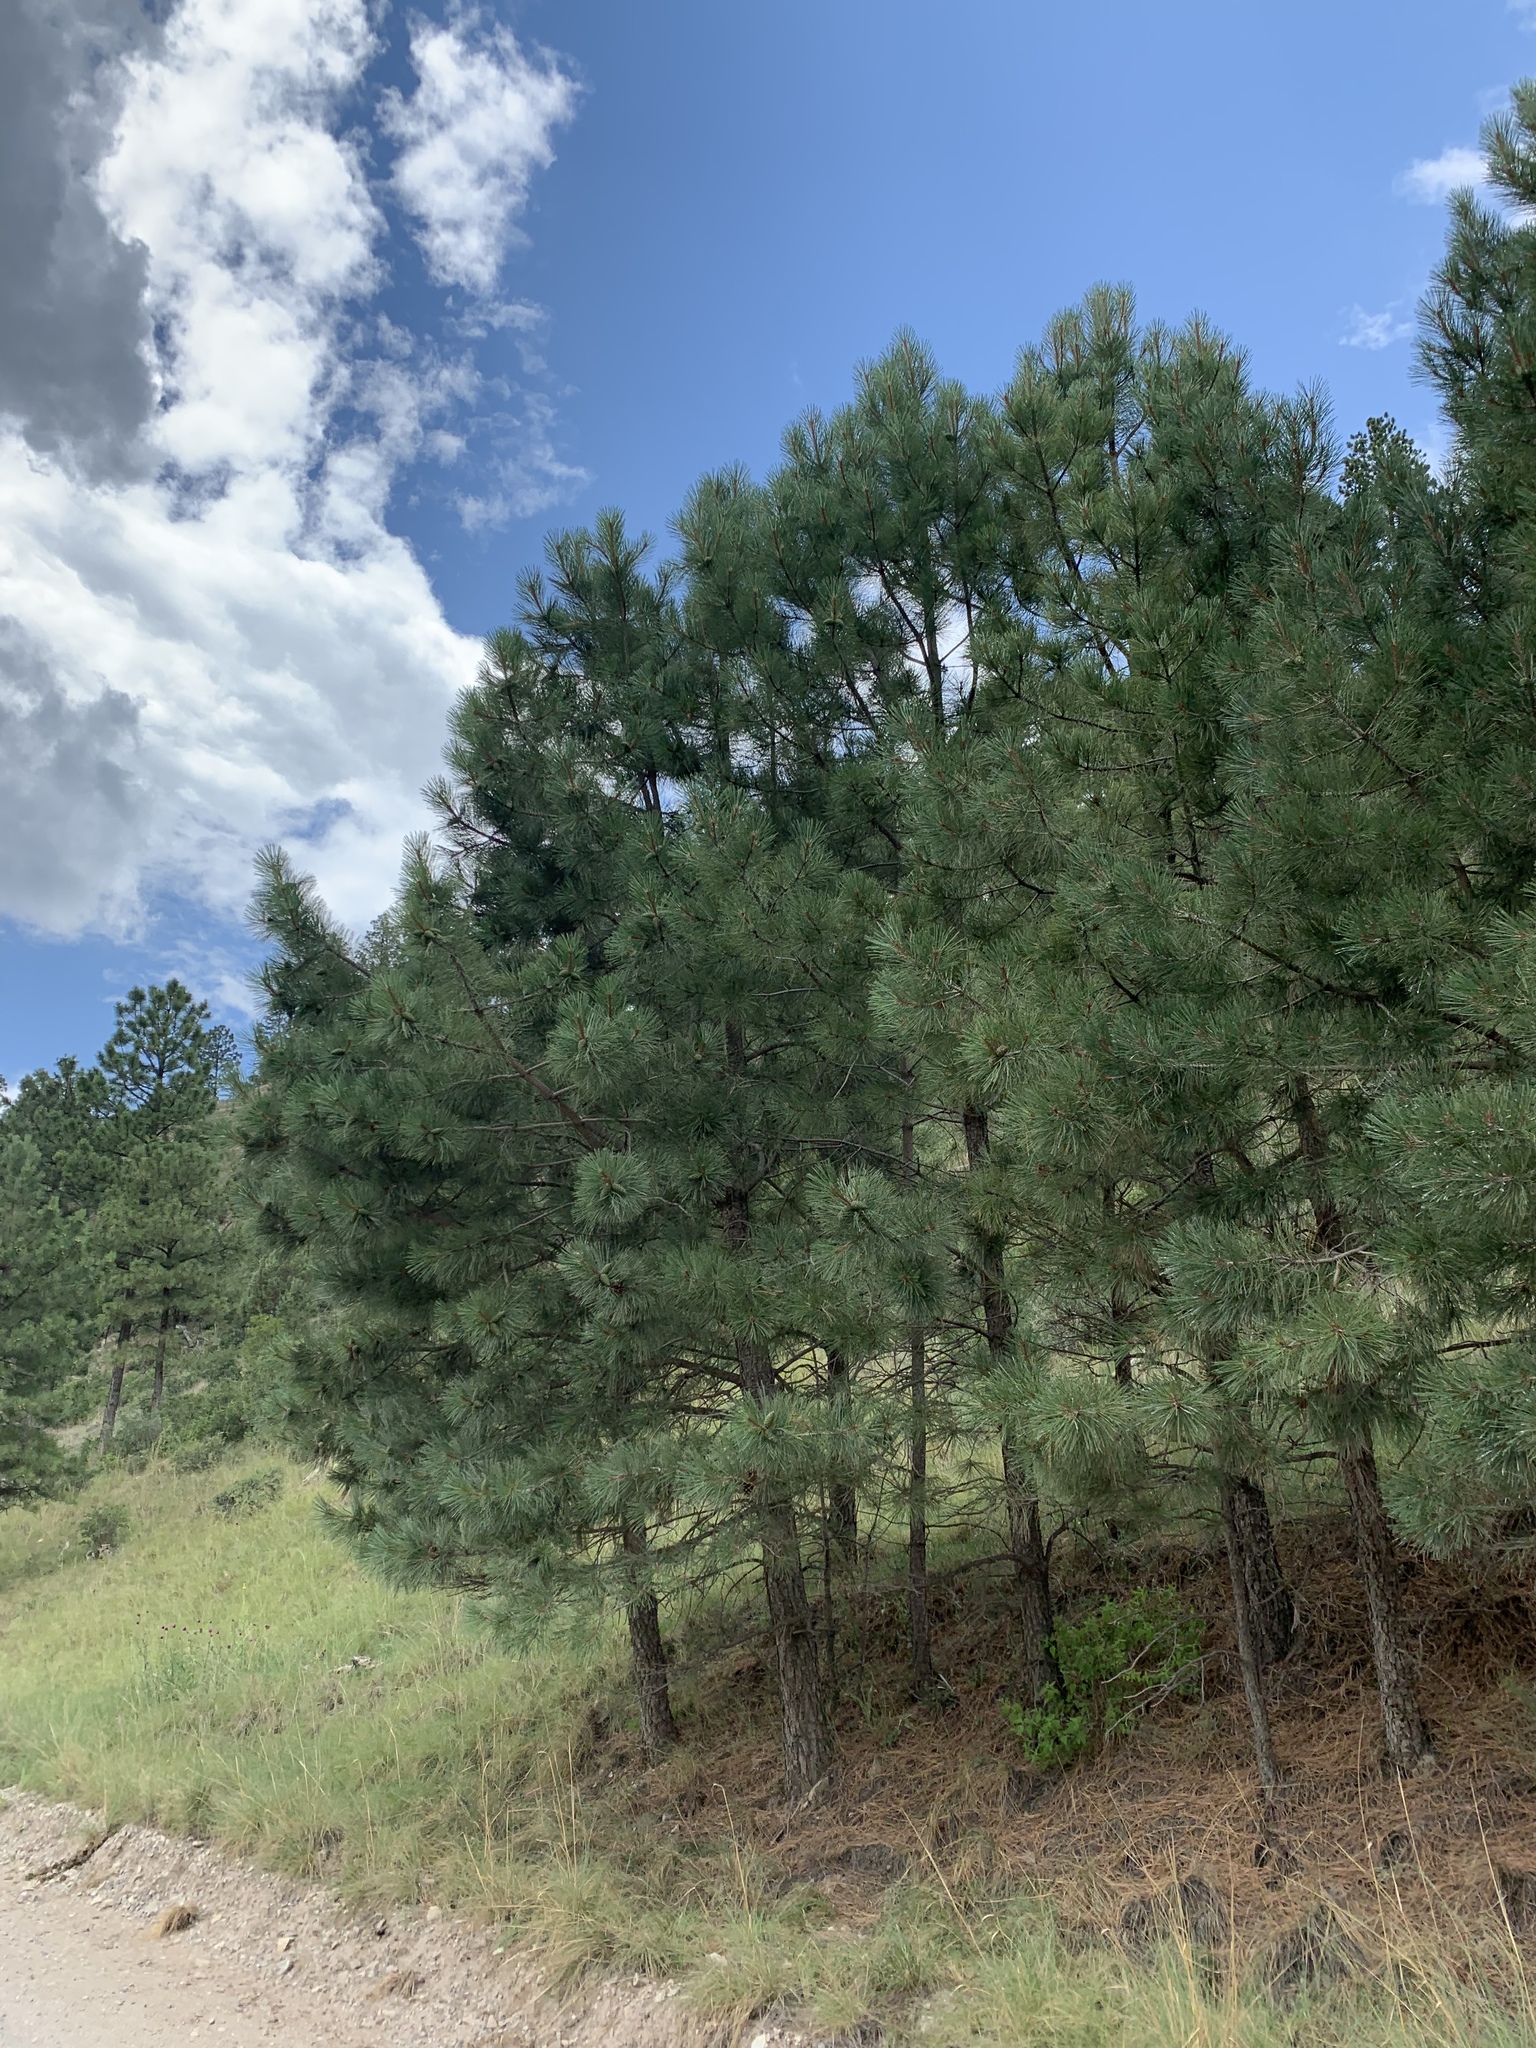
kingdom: Plantae
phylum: Tracheophyta
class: Pinopsida
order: Pinales
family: Pinaceae
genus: Pinus
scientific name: Pinus ponderosa
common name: Western yellow-pine
